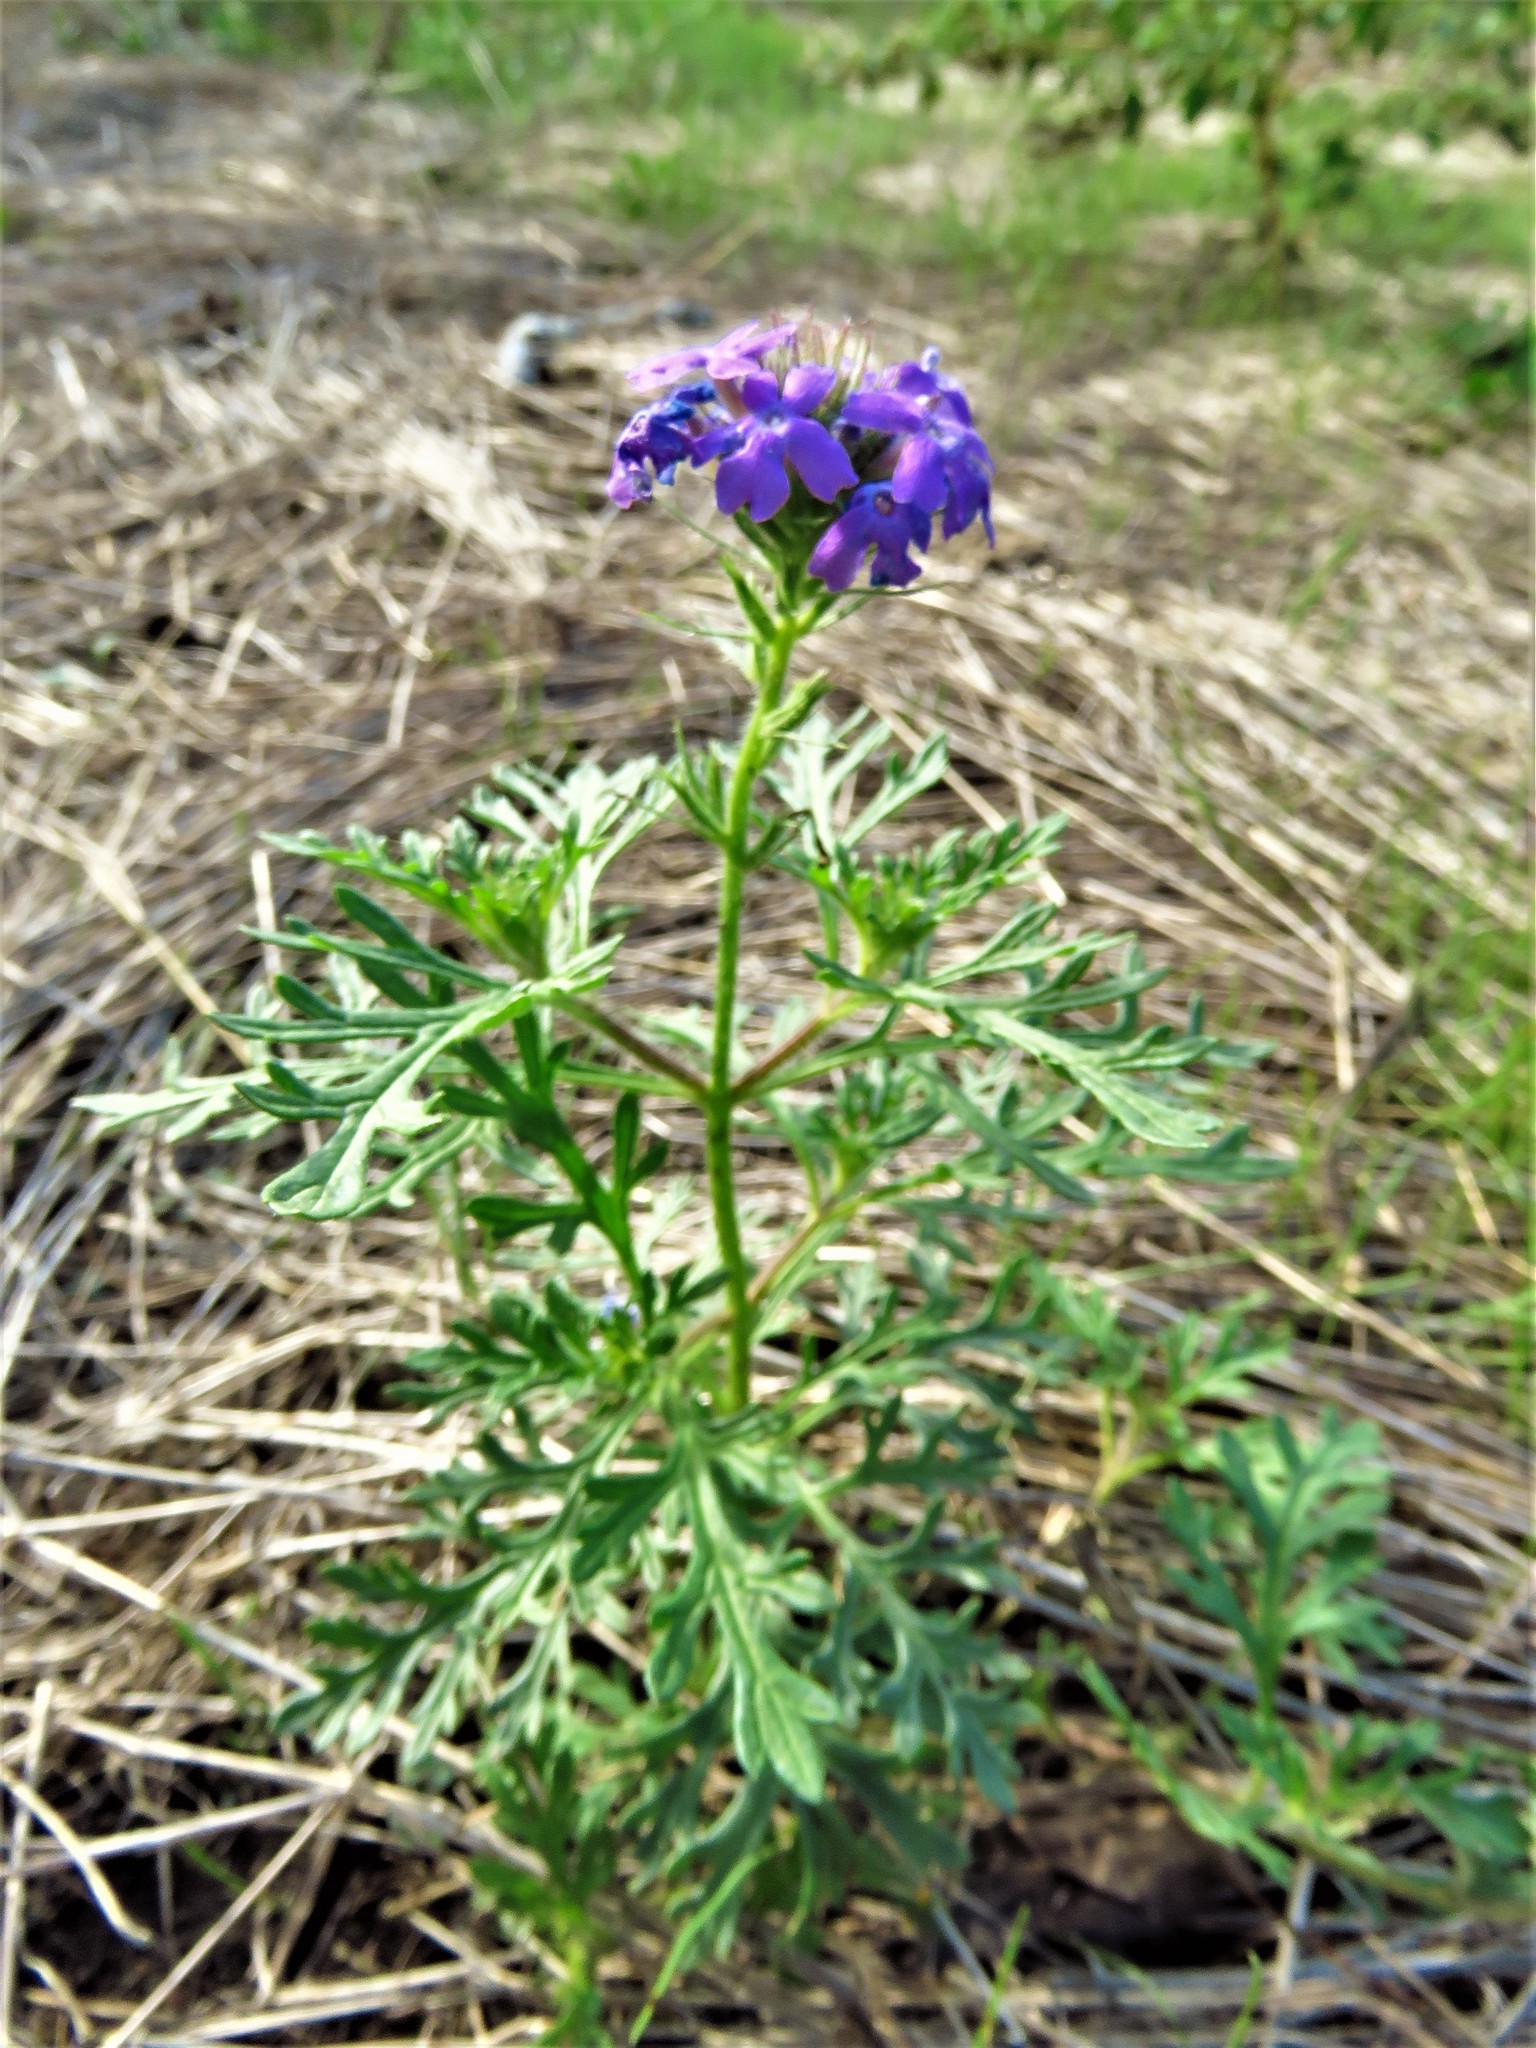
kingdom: Plantae
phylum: Tracheophyta
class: Magnoliopsida
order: Lamiales
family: Verbenaceae
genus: Verbena
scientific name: Verbena bipinnatifida
